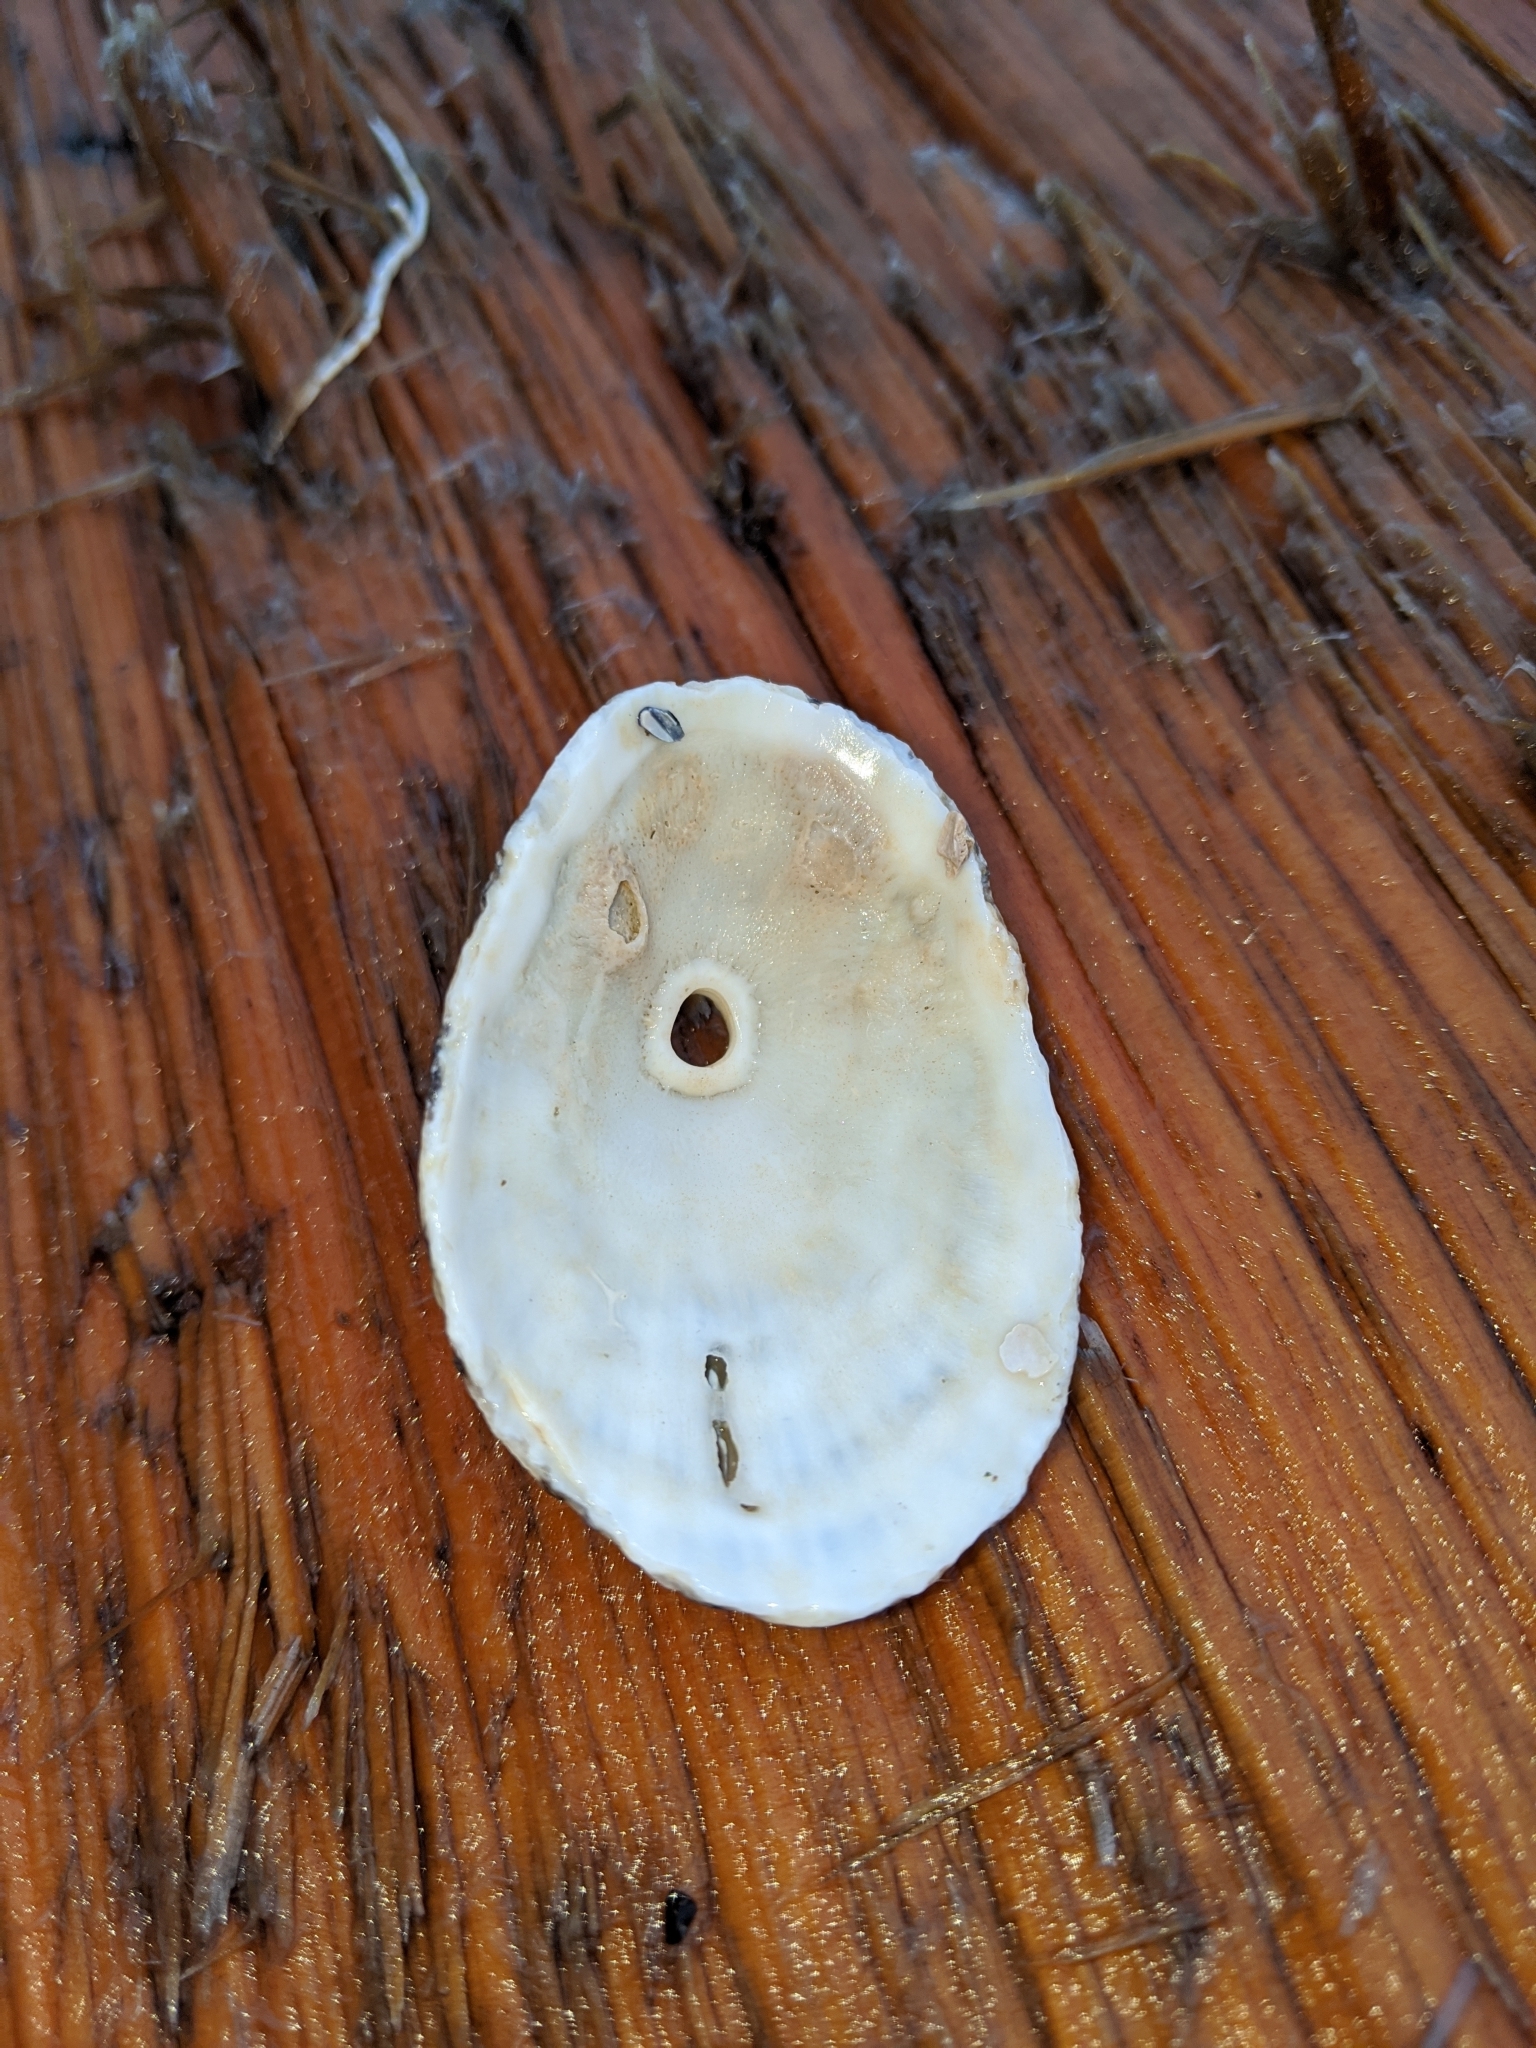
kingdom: Animalia
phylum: Mollusca
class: Gastropoda
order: Lepetellida
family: Fissurellidae
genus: Diodora
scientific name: Diodora aspera
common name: Rough keyhole limpet
